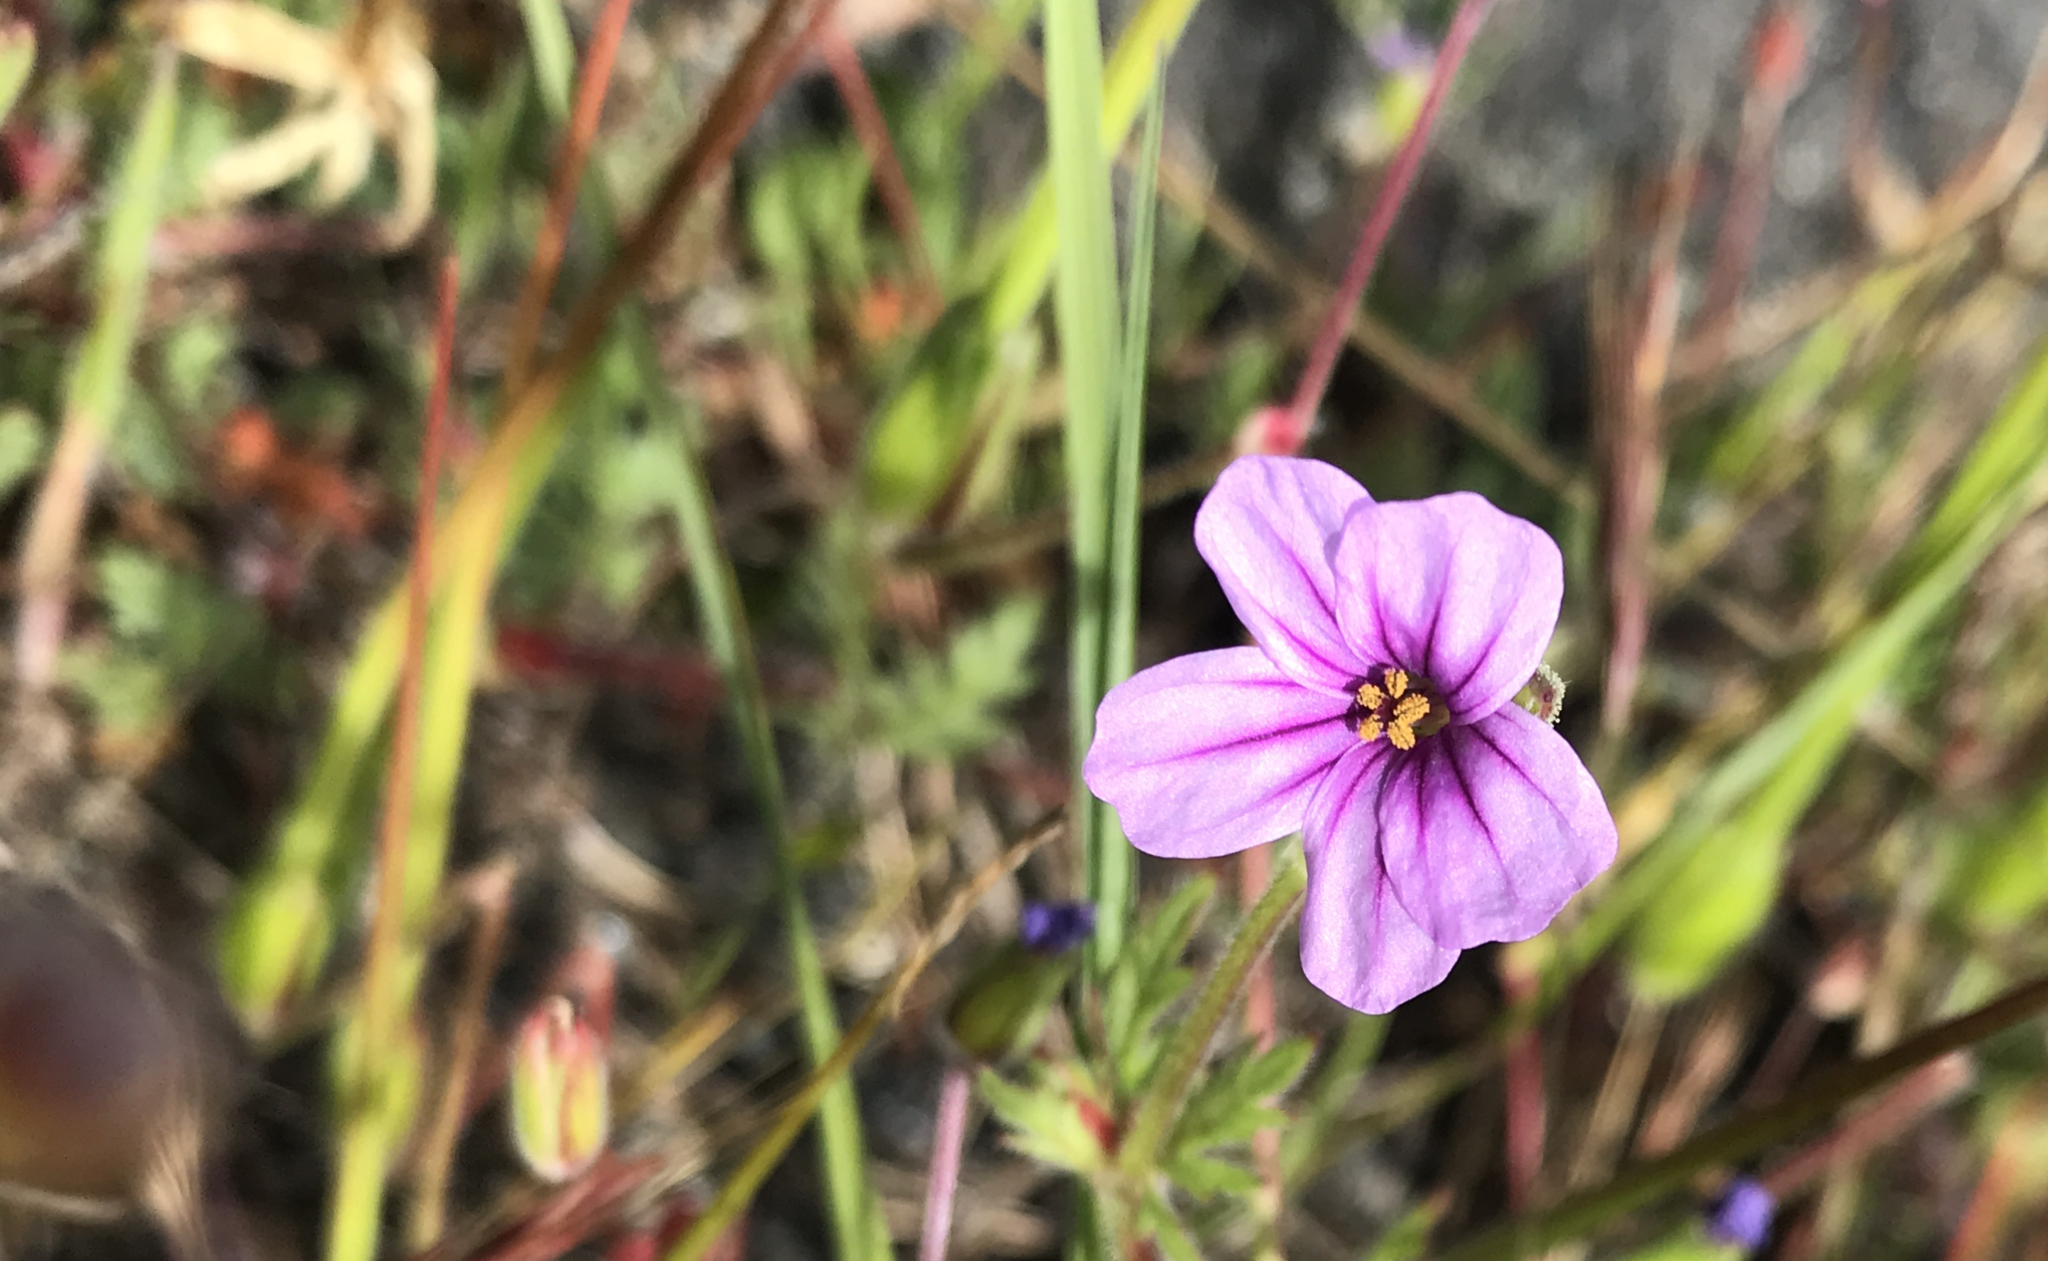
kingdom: Plantae
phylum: Tracheophyta
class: Magnoliopsida
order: Geraniales
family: Geraniaceae
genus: Erodium
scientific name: Erodium botrys
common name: Mediterranean stork's-bill
